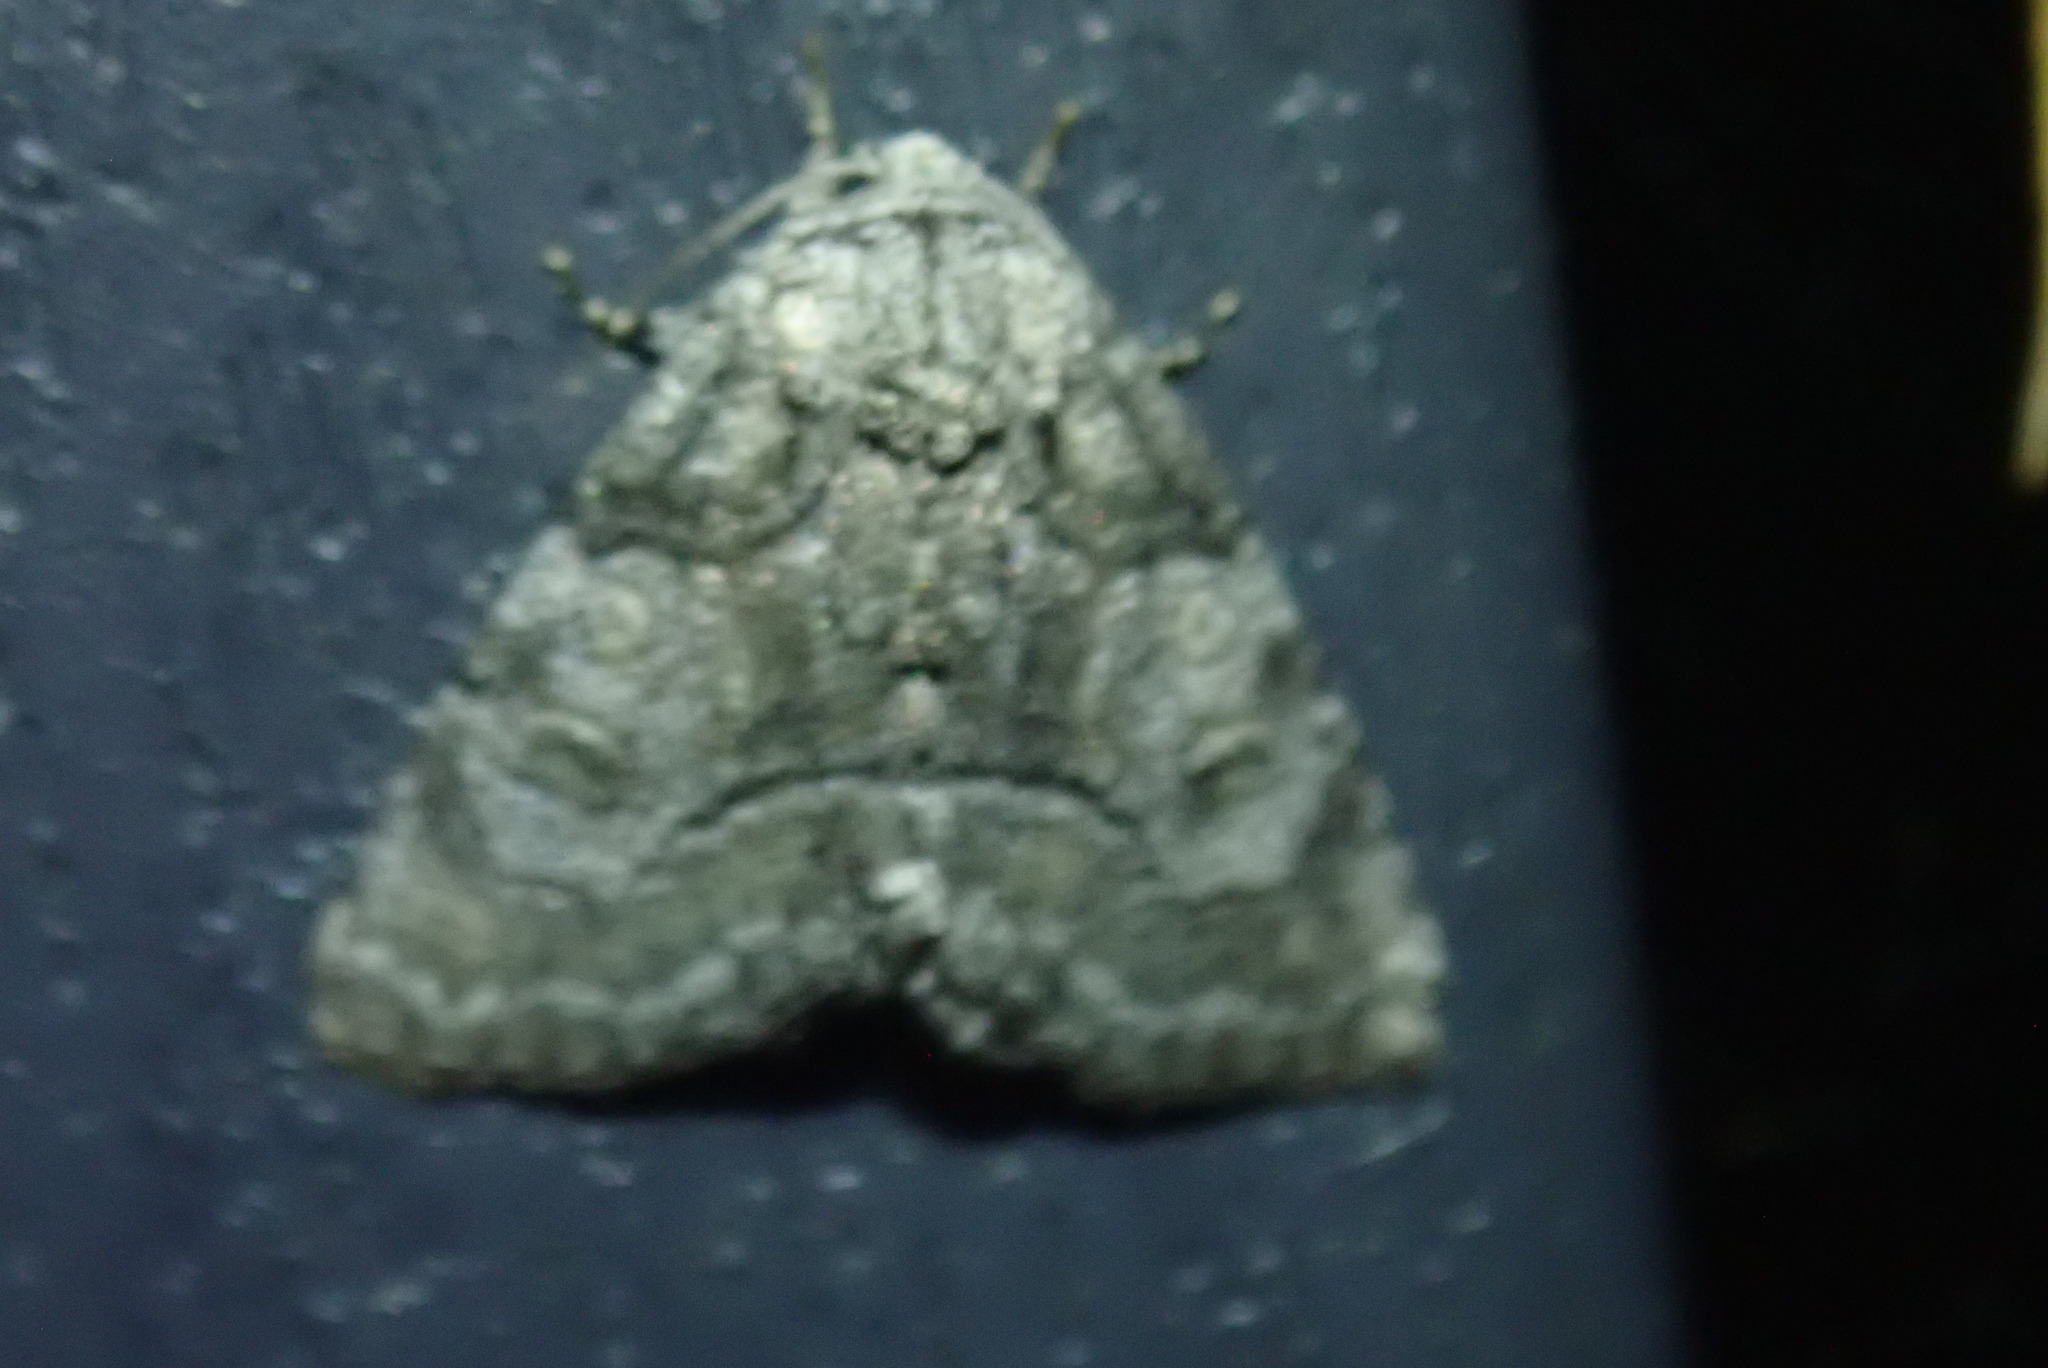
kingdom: Animalia
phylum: Arthropoda
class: Insecta
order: Lepidoptera
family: Noctuidae
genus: Raphia
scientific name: Raphia frater
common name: Brother
